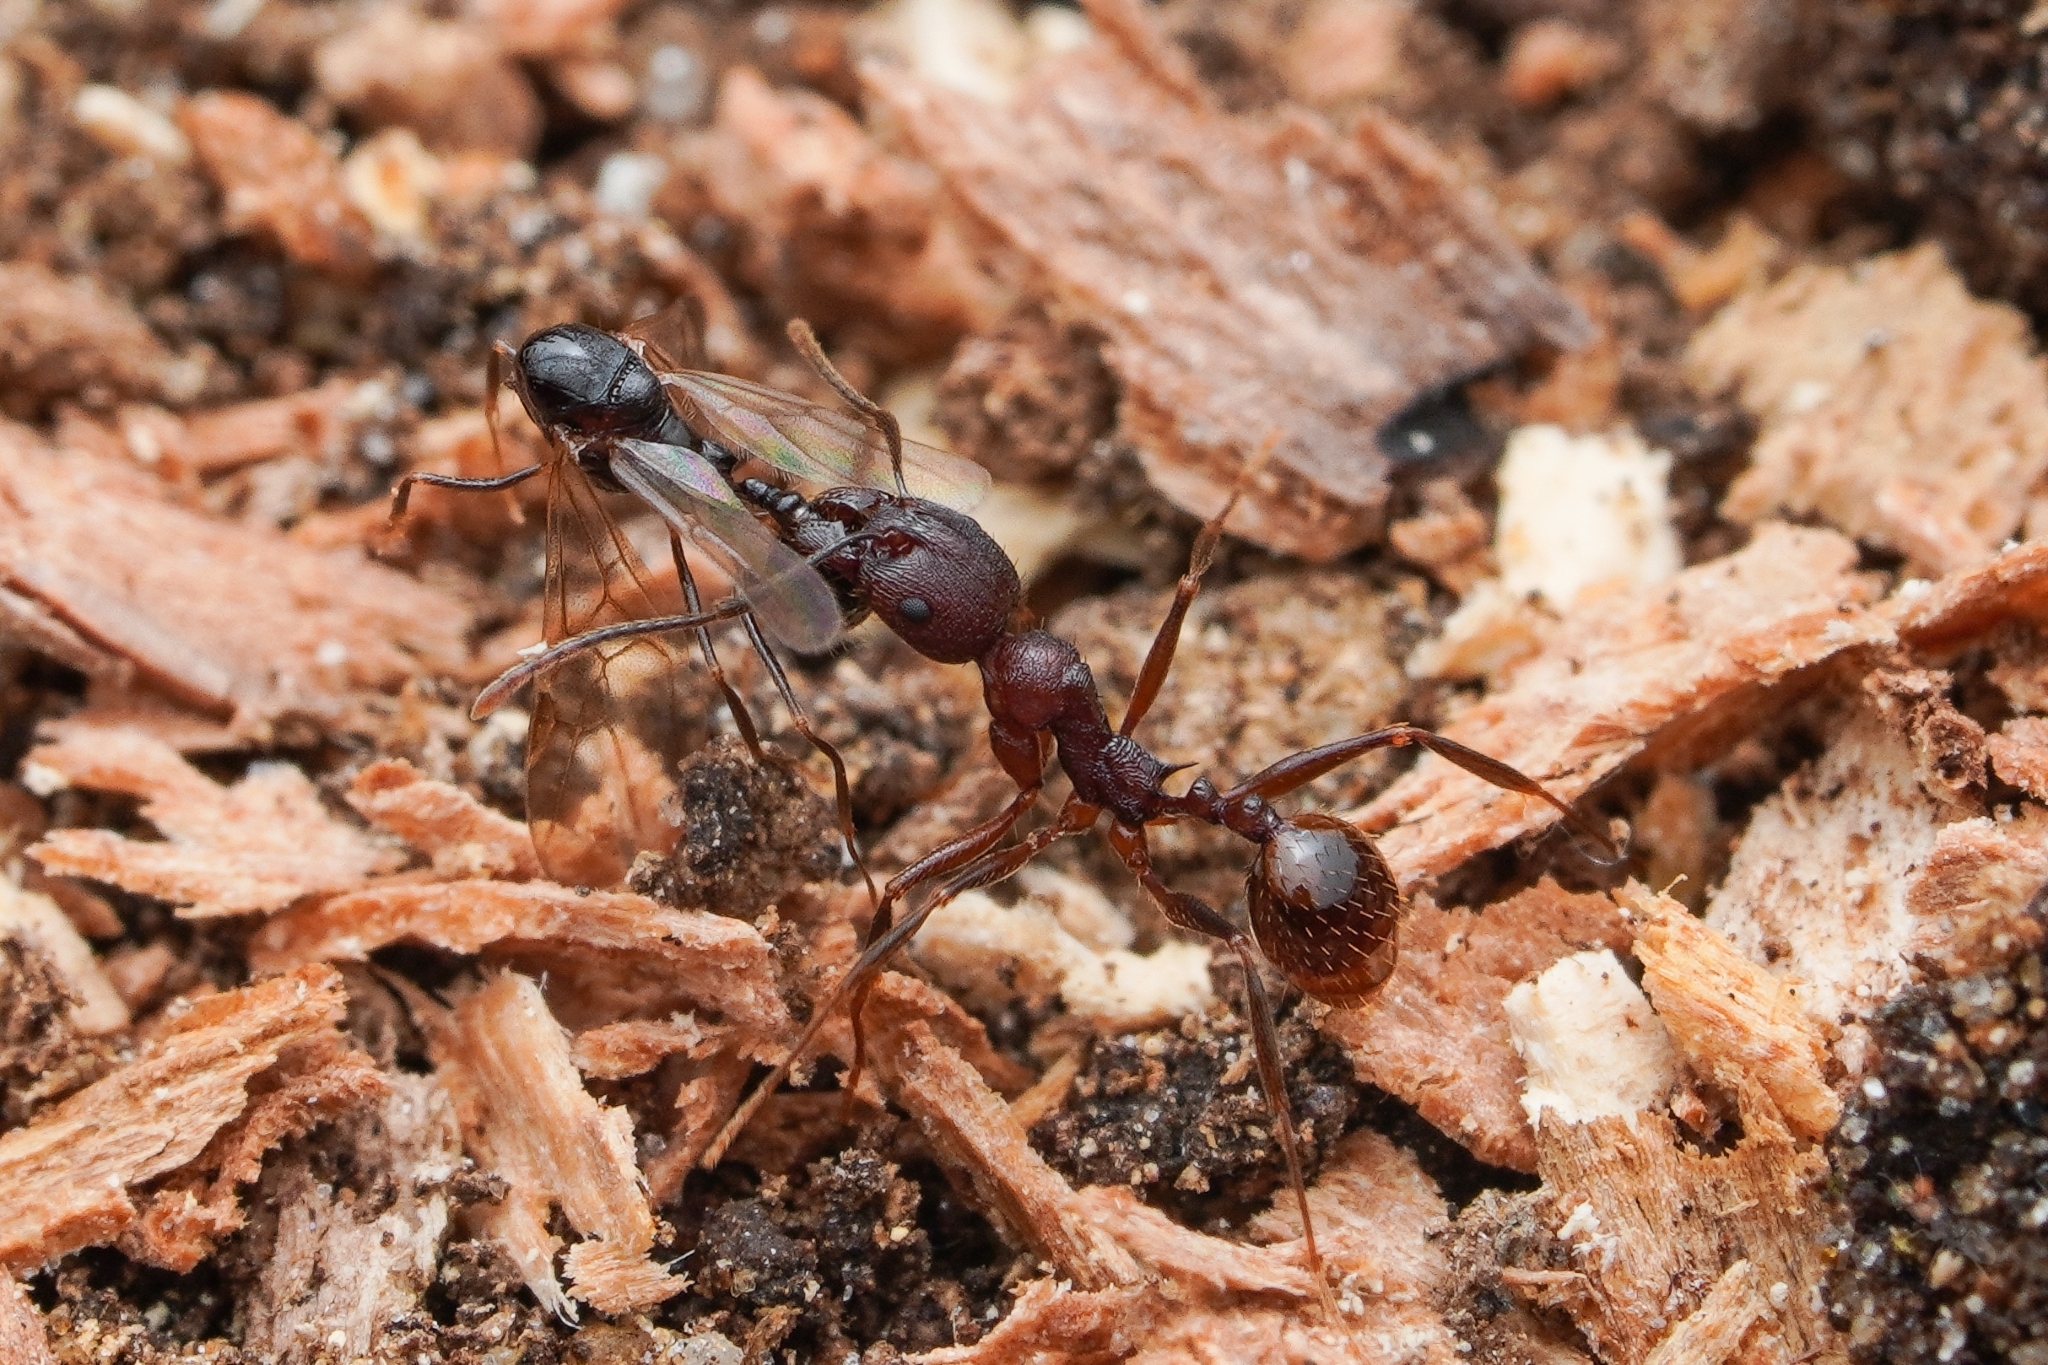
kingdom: Animalia
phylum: Arthropoda
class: Insecta
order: Hymenoptera
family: Formicidae
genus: Aphaenogaster
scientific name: Aphaenogaster fulva
